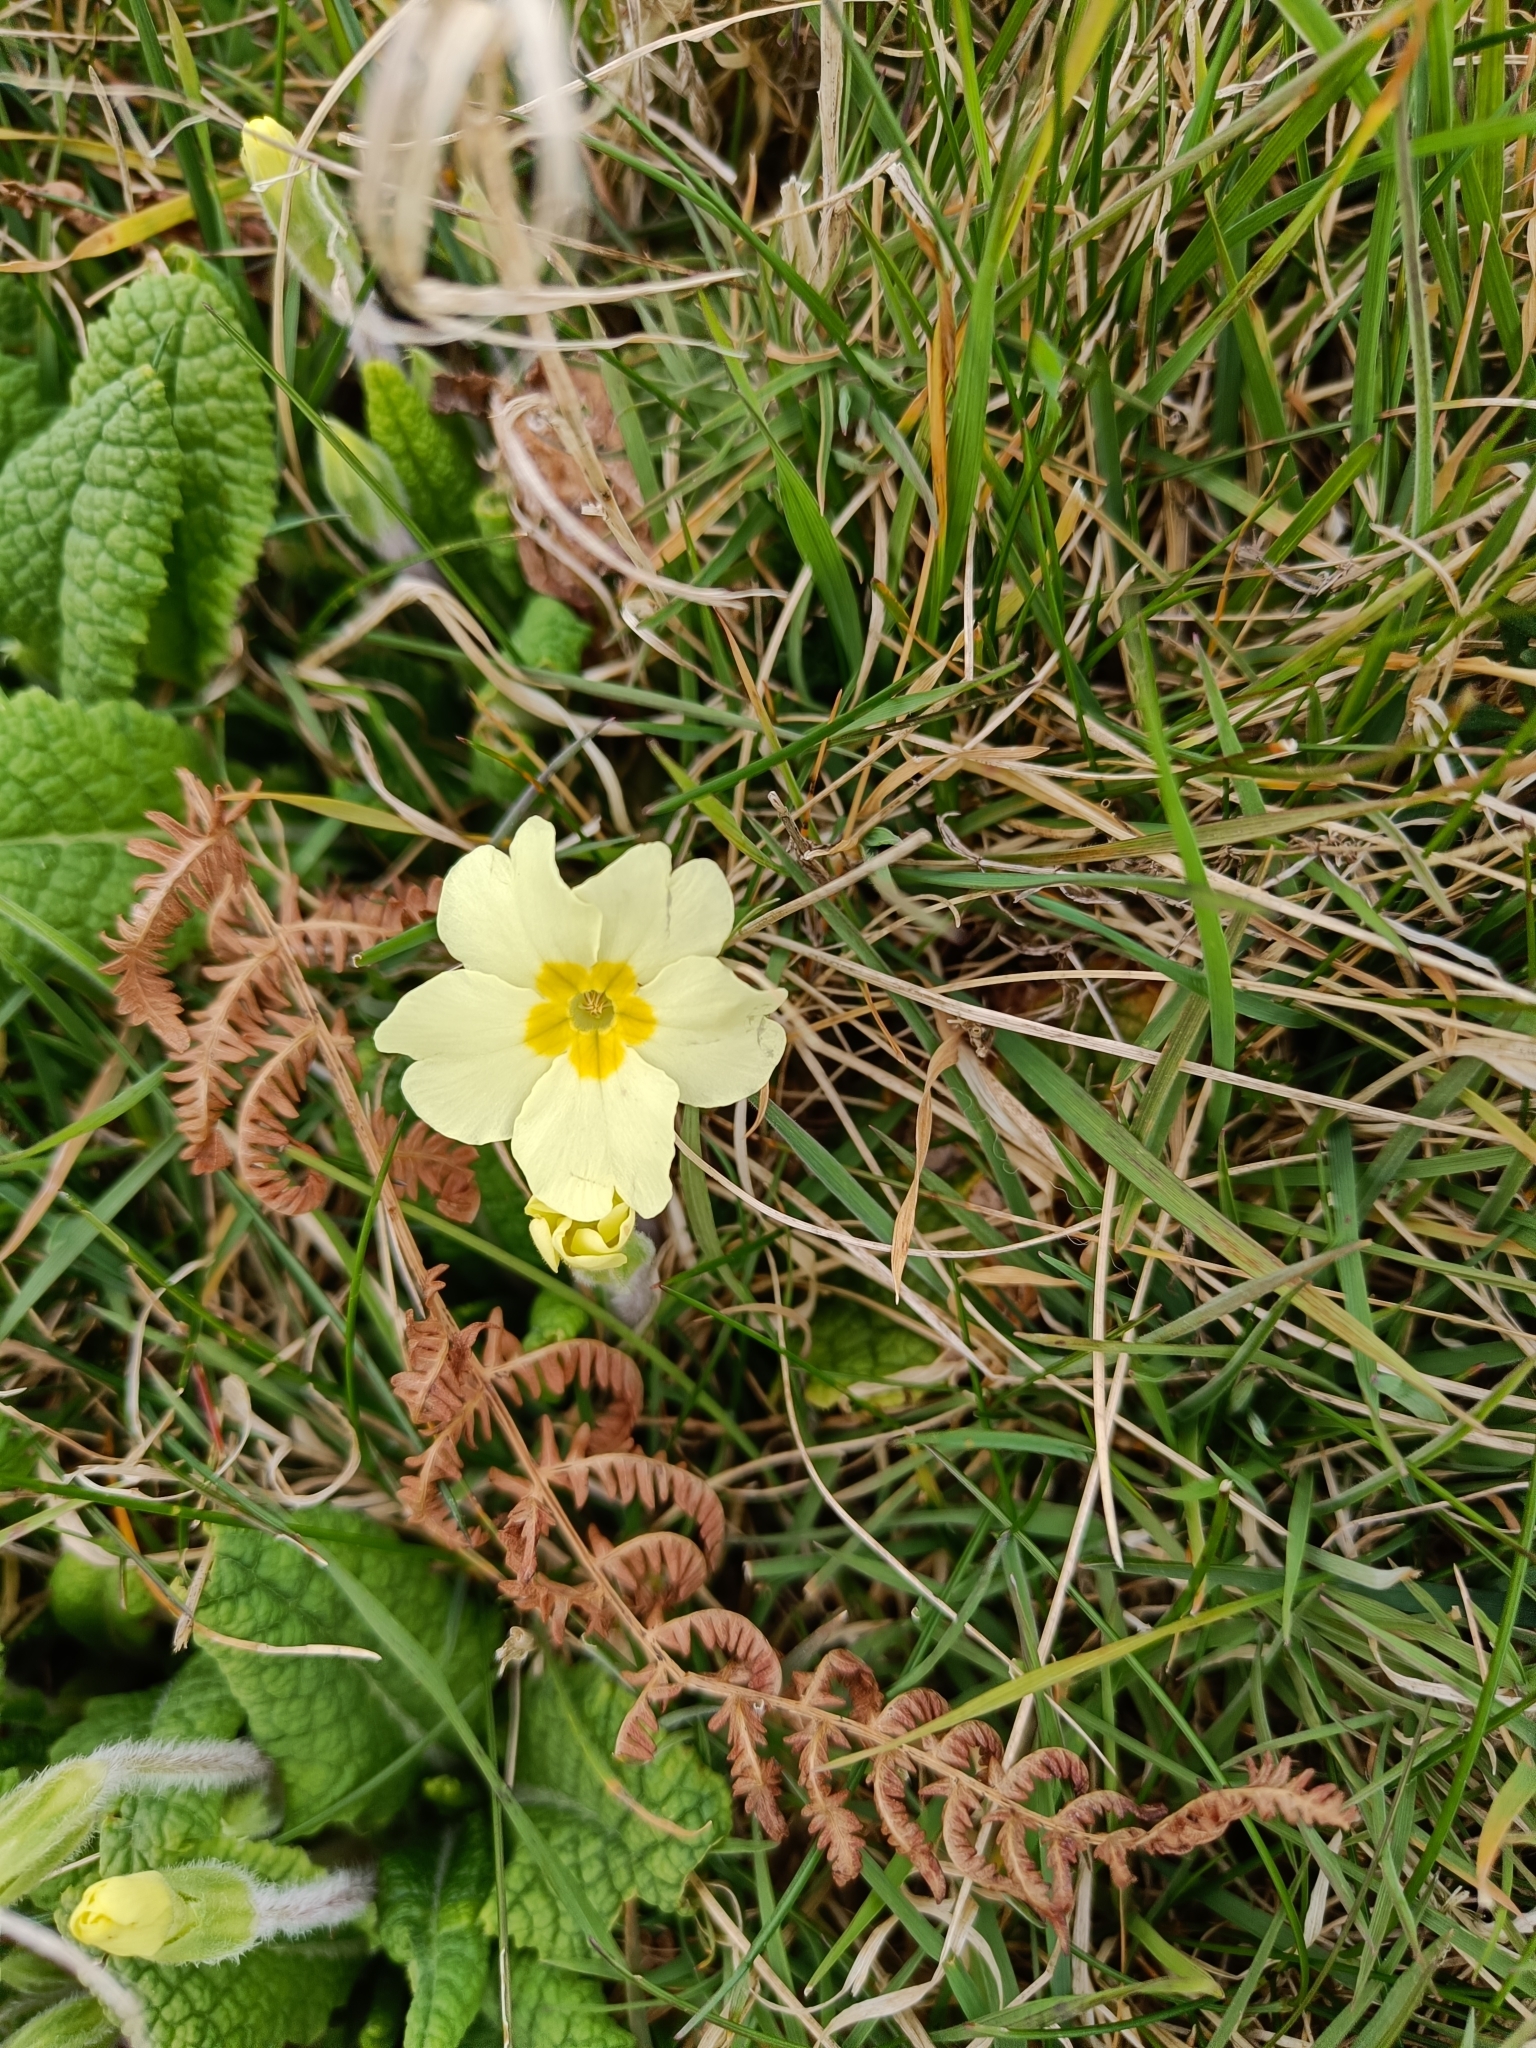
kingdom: Plantae
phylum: Tracheophyta
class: Magnoliopsida
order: Ericales
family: Primulaceae
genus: Primula
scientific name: Primula vulgaris
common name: Primrose
